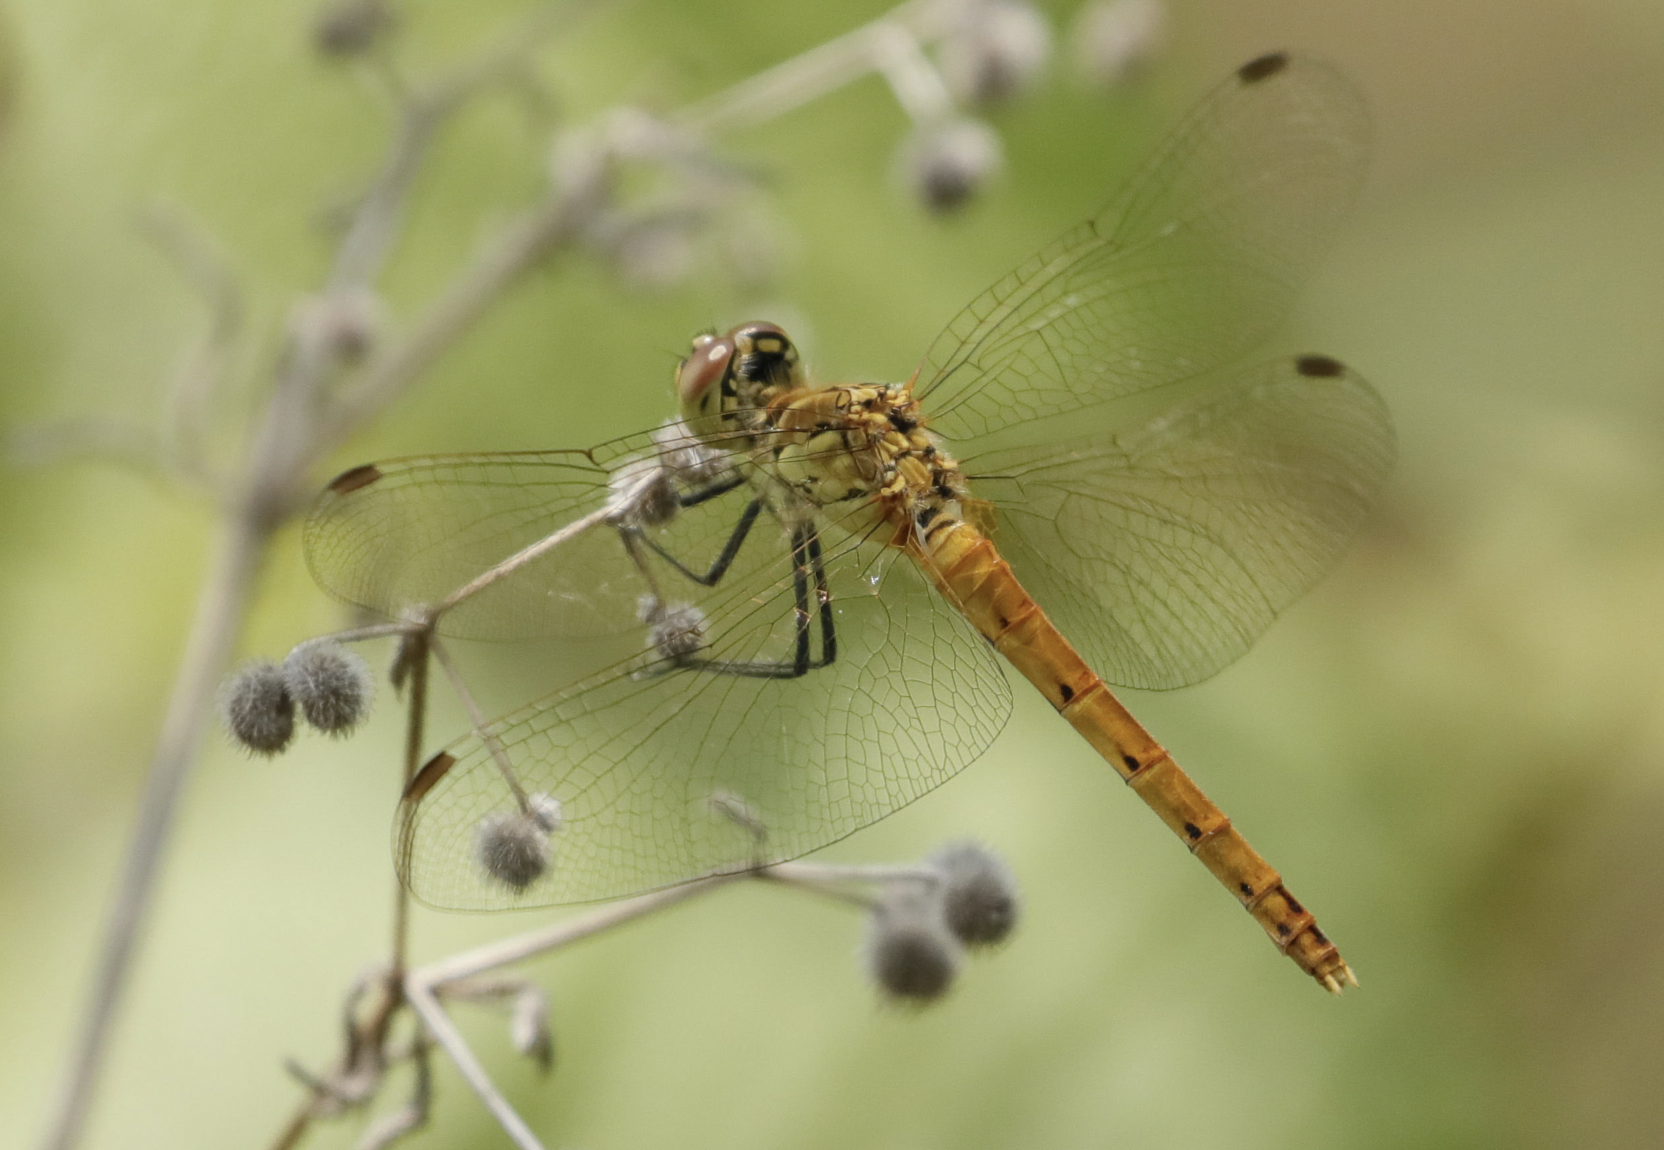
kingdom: Animalia
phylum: Arthropoda
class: Insecta
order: Odonata
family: Libellulidae
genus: Sympetrum
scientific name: Sympetrum depressiusculum
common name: Spotted darter
